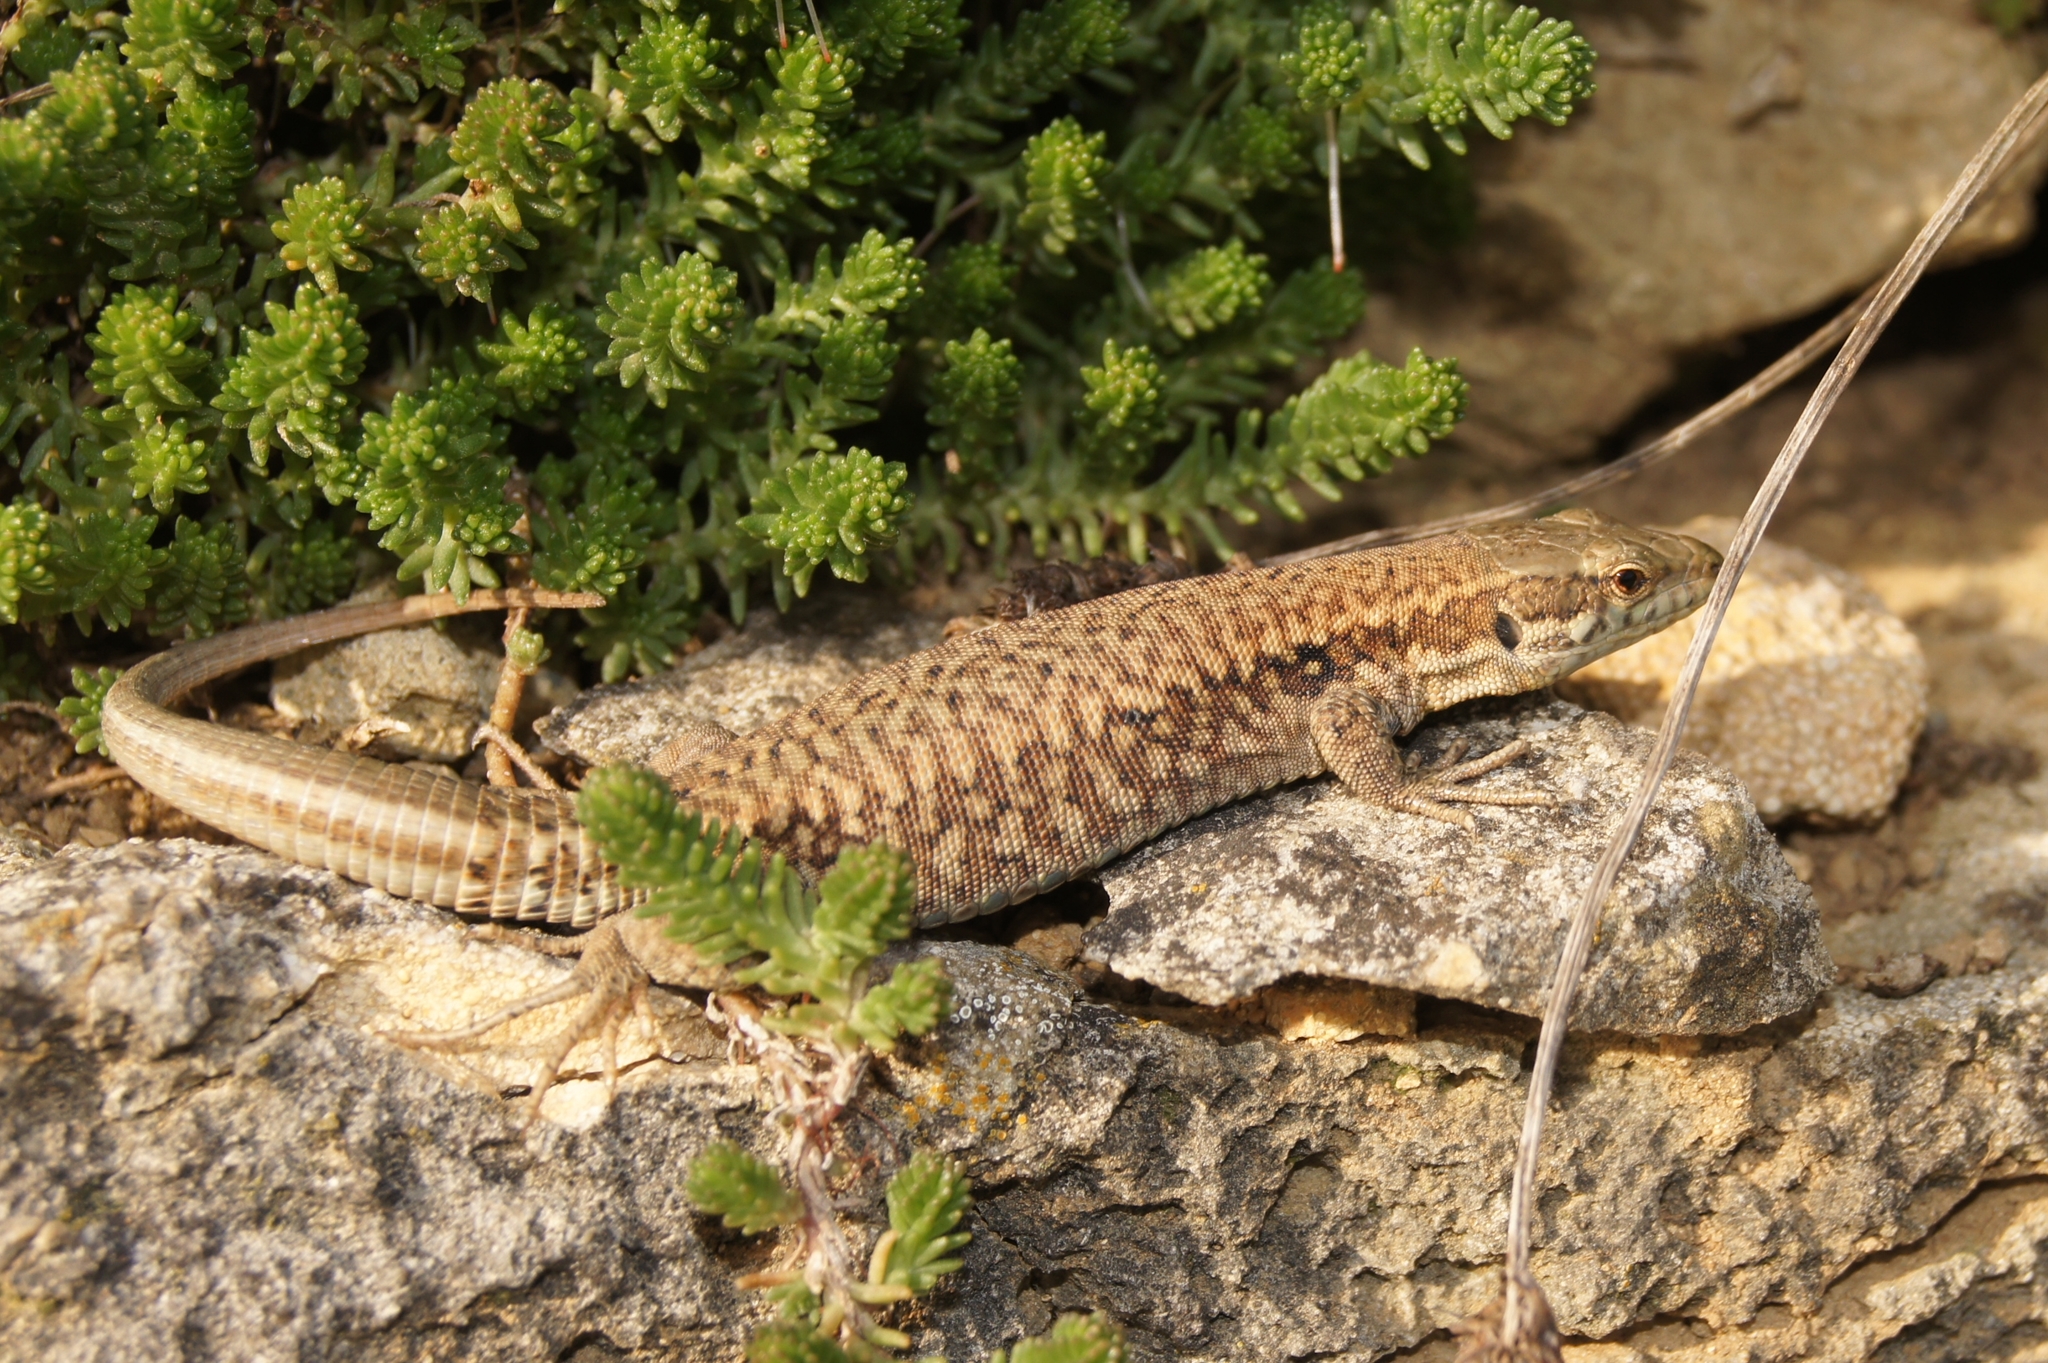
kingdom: Animalia
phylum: Chordata
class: Squamata
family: Lacertidae
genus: Podarcis
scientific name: Podarcis muralis
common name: Common wall lizard
